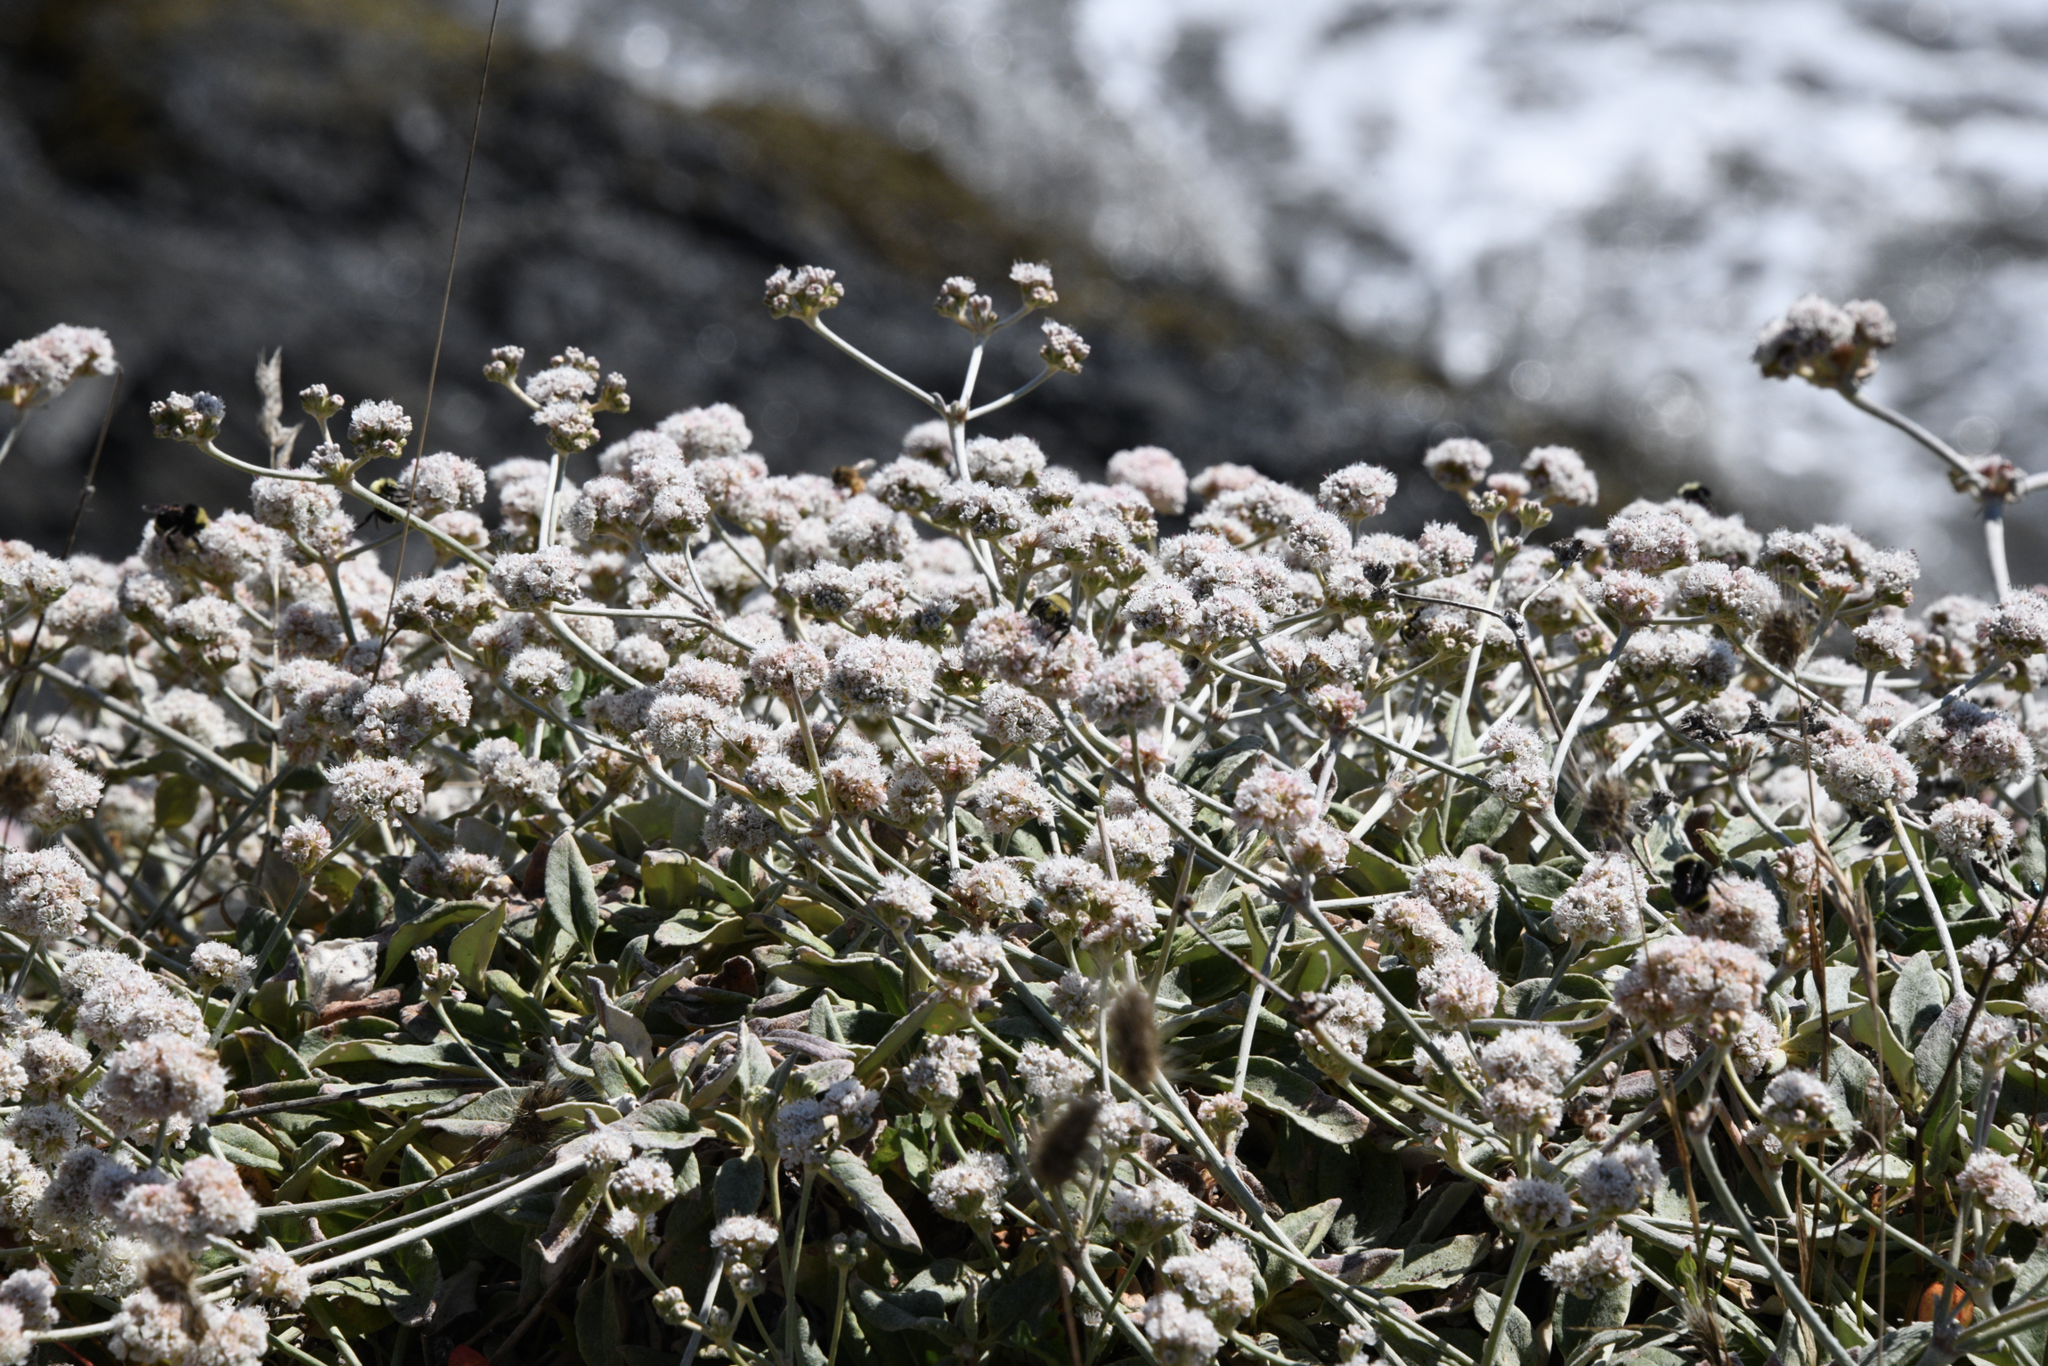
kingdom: Plantae
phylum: Tracheophyta
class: Magnoliopsida
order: Caryophyllales
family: Polygonaceae
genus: Eriogonum
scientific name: Eriogonum latifolium
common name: Seaside wild buckwheat
